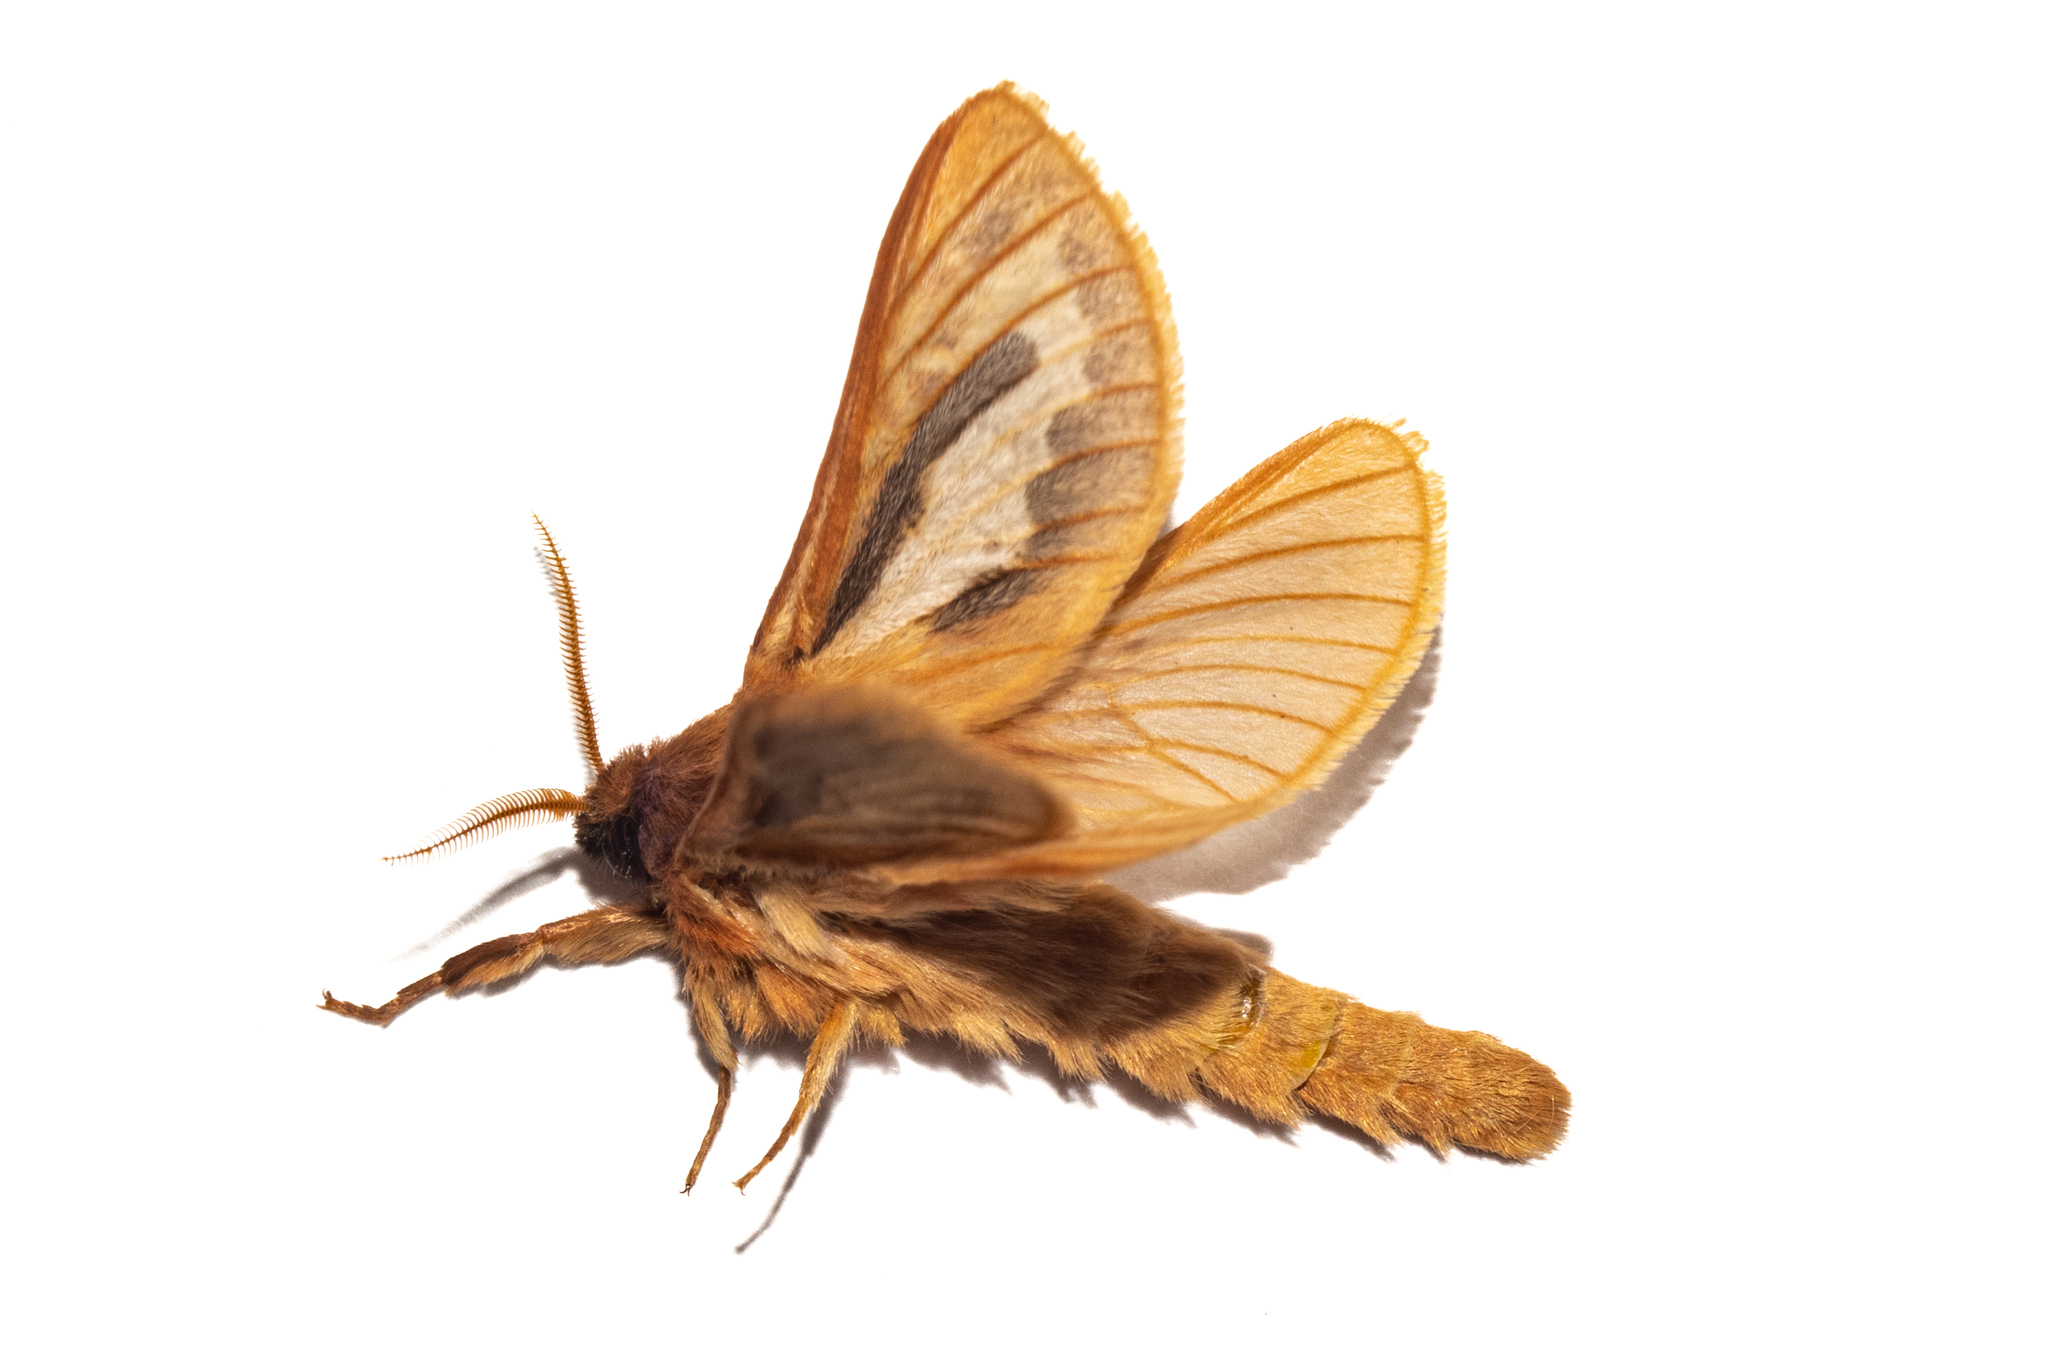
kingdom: Animalia
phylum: Arthropoda
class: Insecta
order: Lepidoptera
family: Hepialidae
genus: Heloxycanus
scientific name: Heloxycanus patricki
